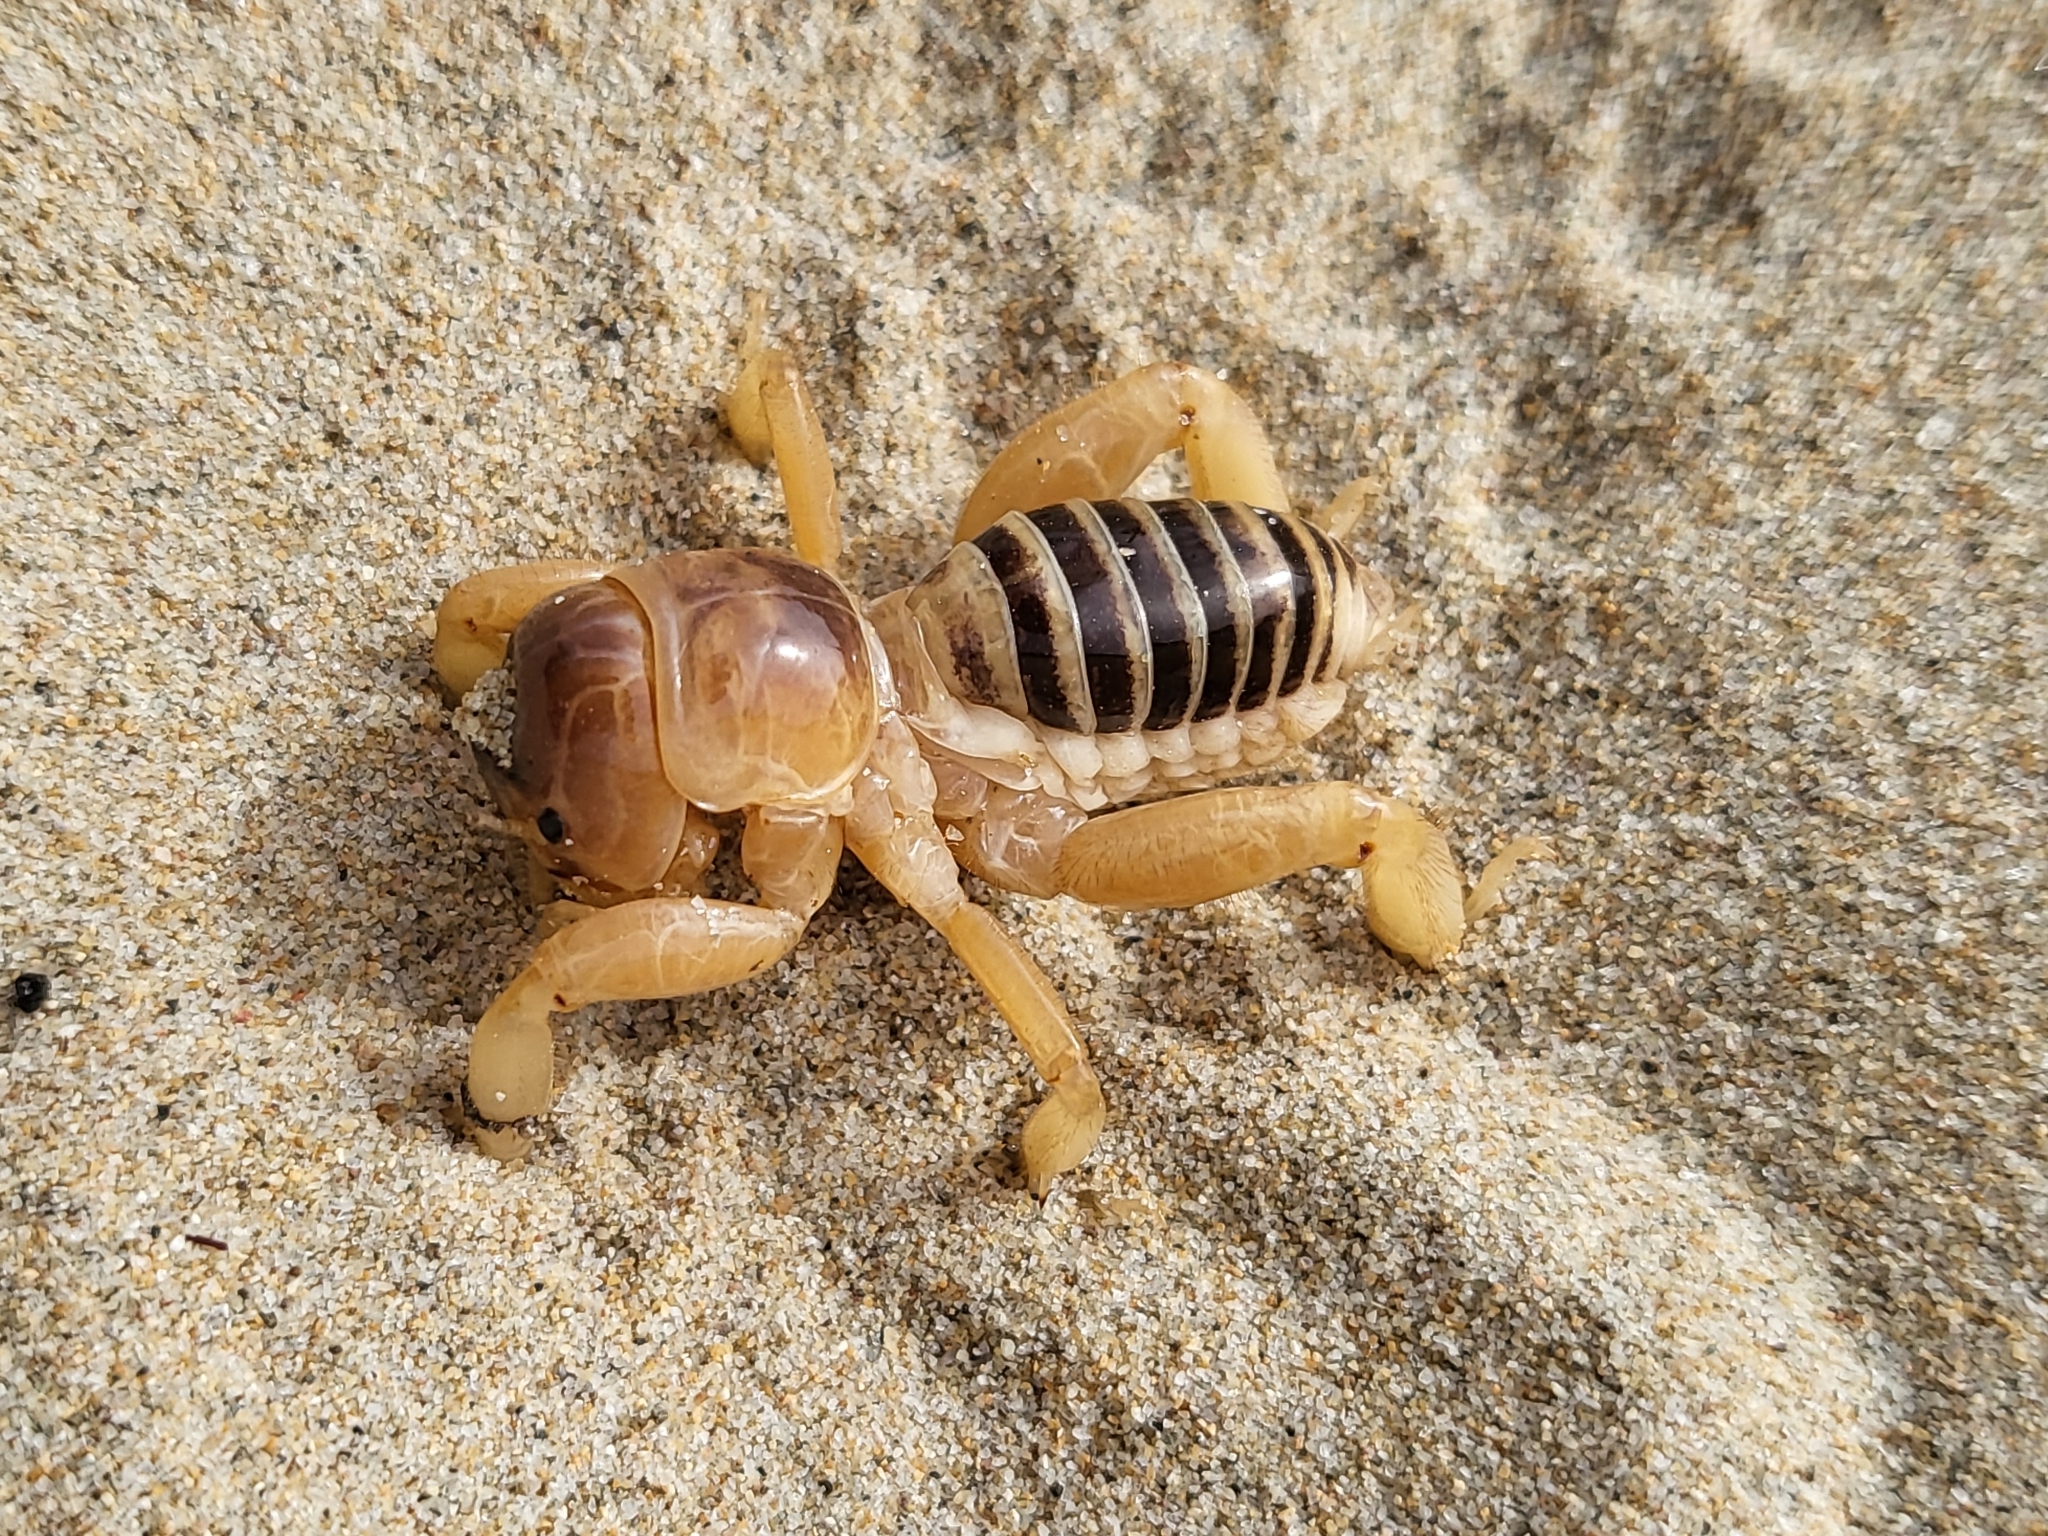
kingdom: Animalia
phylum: Arthropoda
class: Insecta
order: Orthoptera
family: Stenopelmatidae
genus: Ammopelmatus
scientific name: Ammopelmatus muwu
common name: Port conception jerusalem cricket
